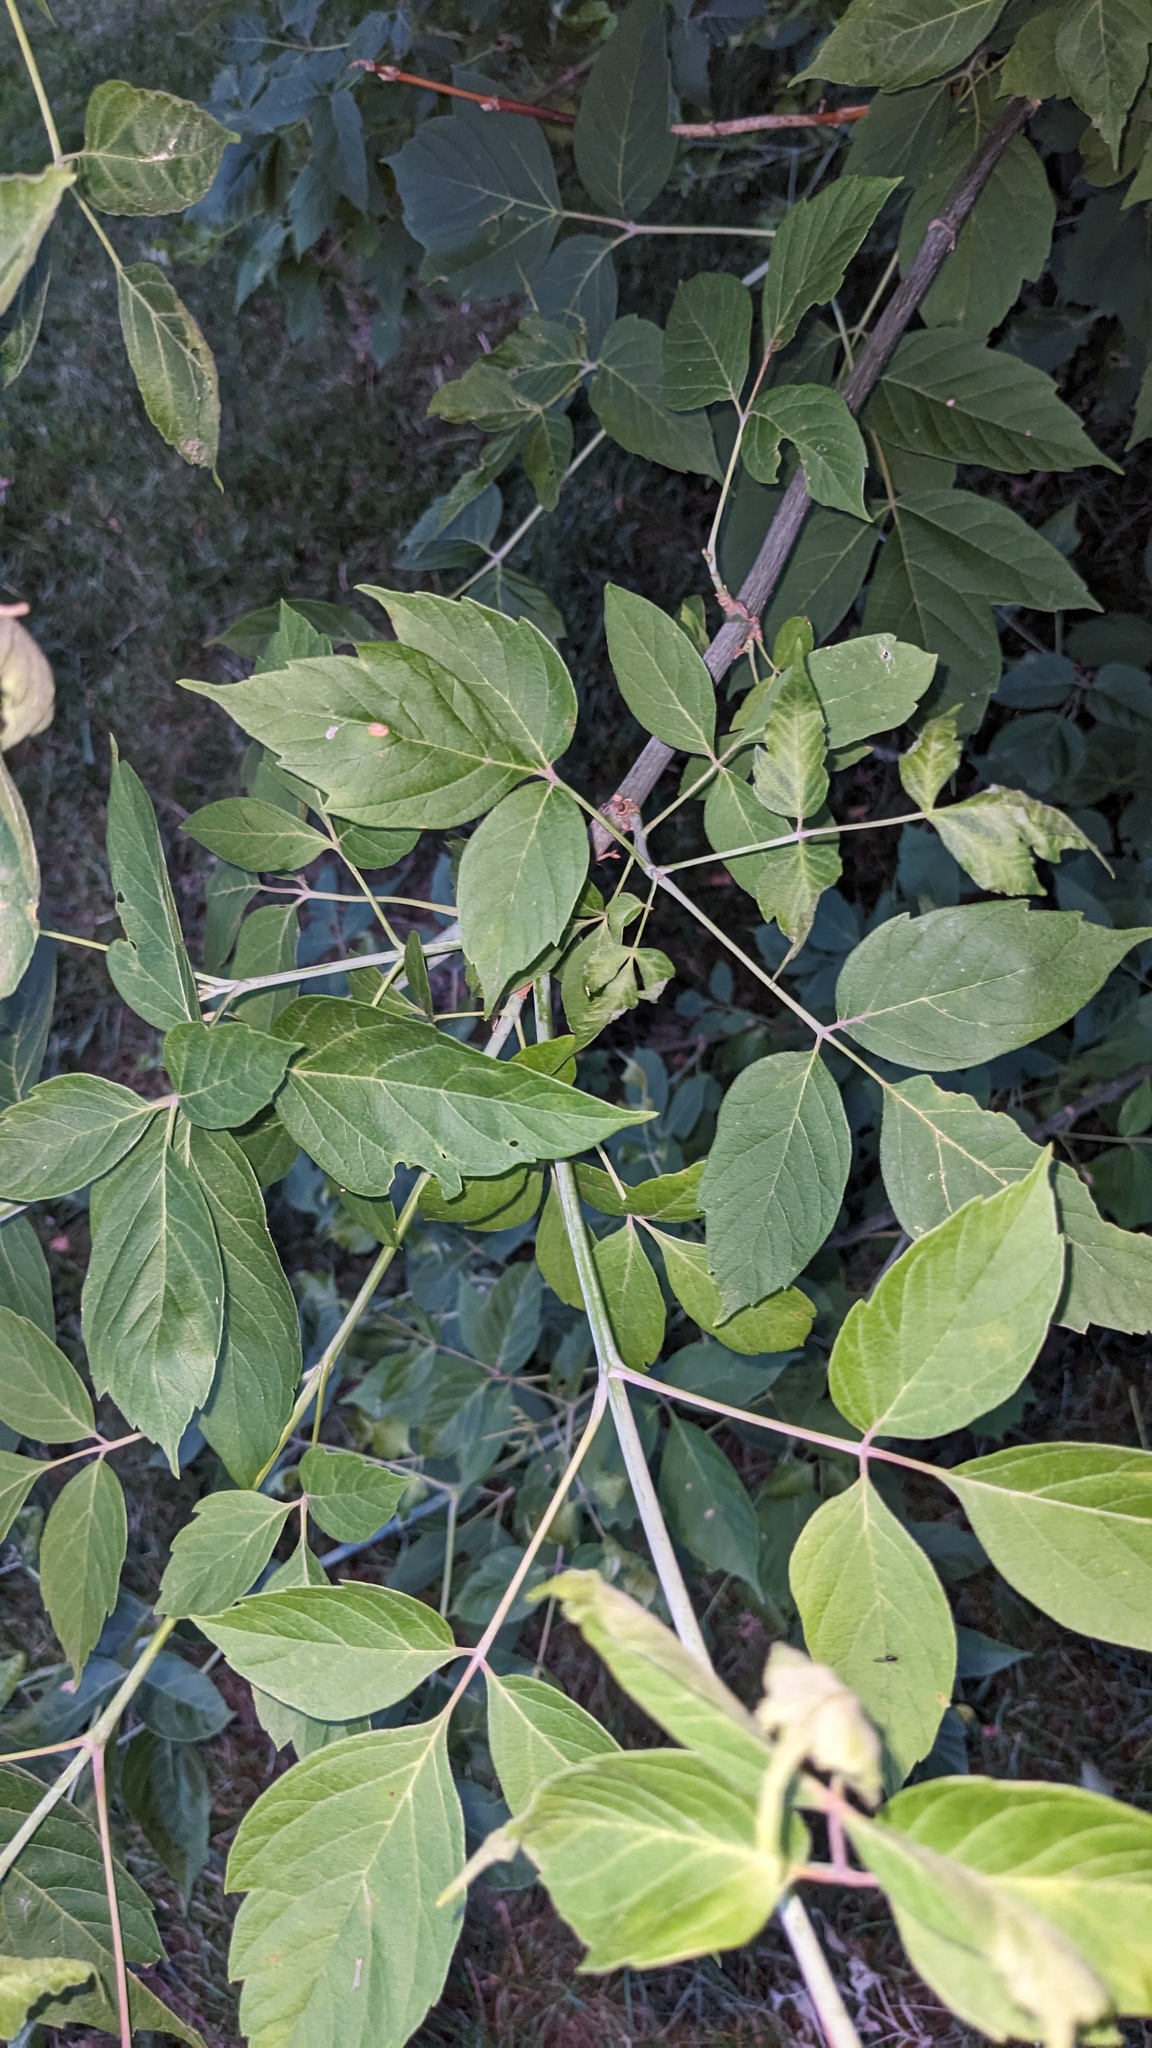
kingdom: Plantae
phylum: Tracheophyta
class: Magnoliopsida
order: Sapindales
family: Sapindaceae
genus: Acer
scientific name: Acer negundo
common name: Ashleaf maple
